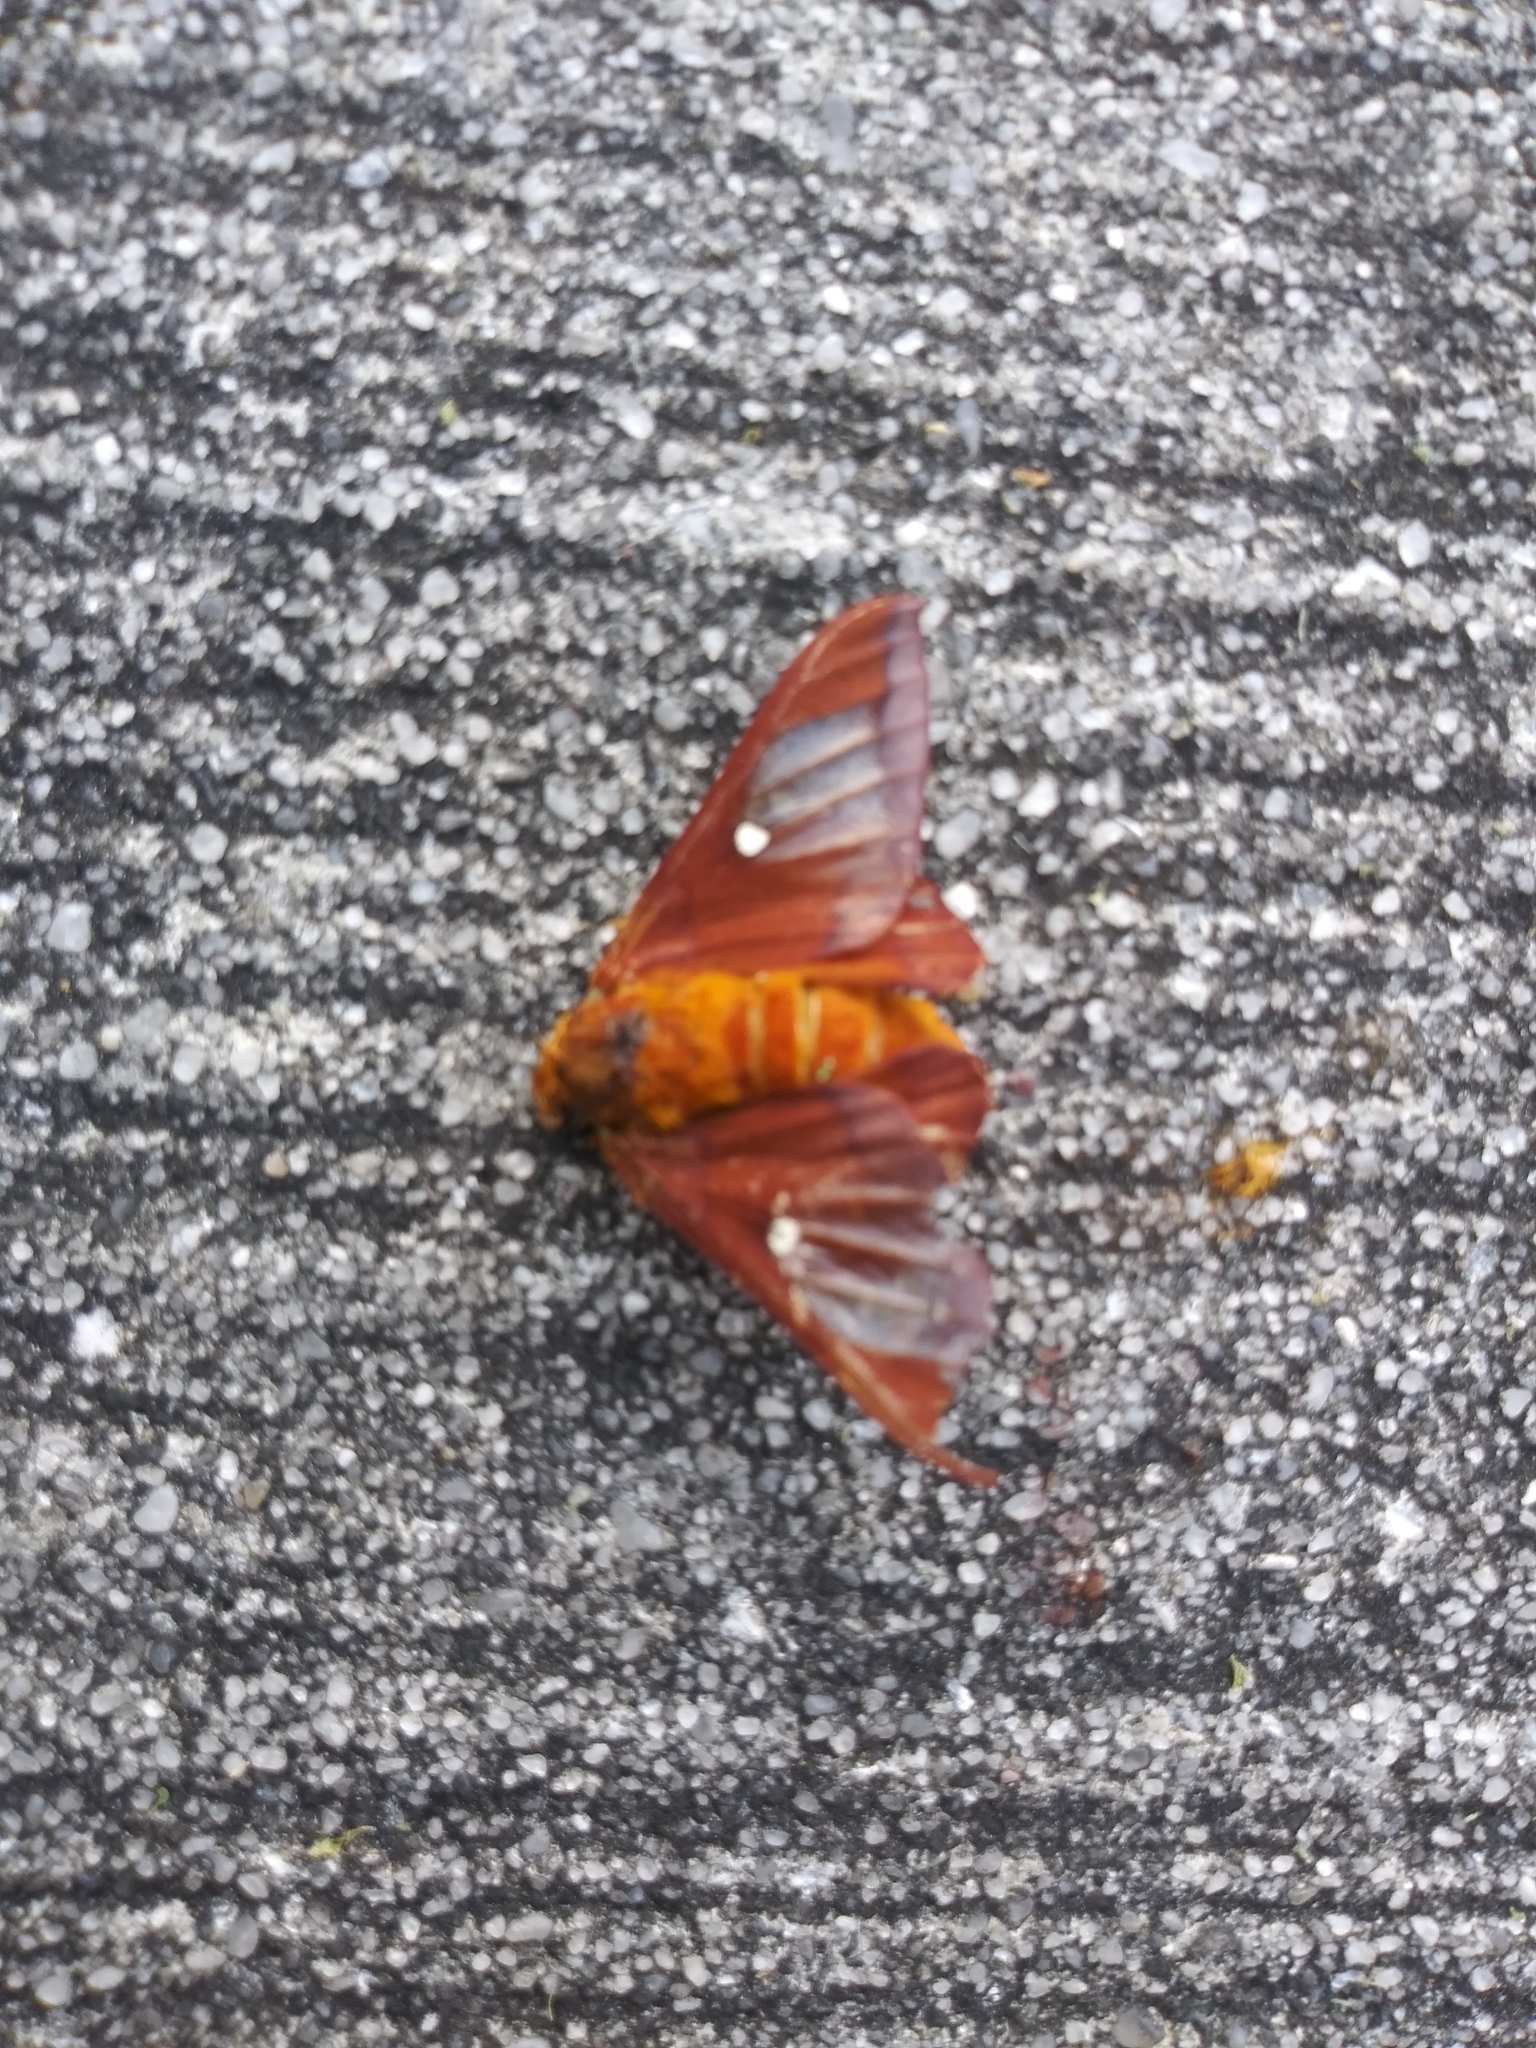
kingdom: Animalia
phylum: Arthropoda
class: Insecta
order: Lepidoptera
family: Saturniidae
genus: Anisota
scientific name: Anisota virginiensis
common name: Pink striped oakworm moth
